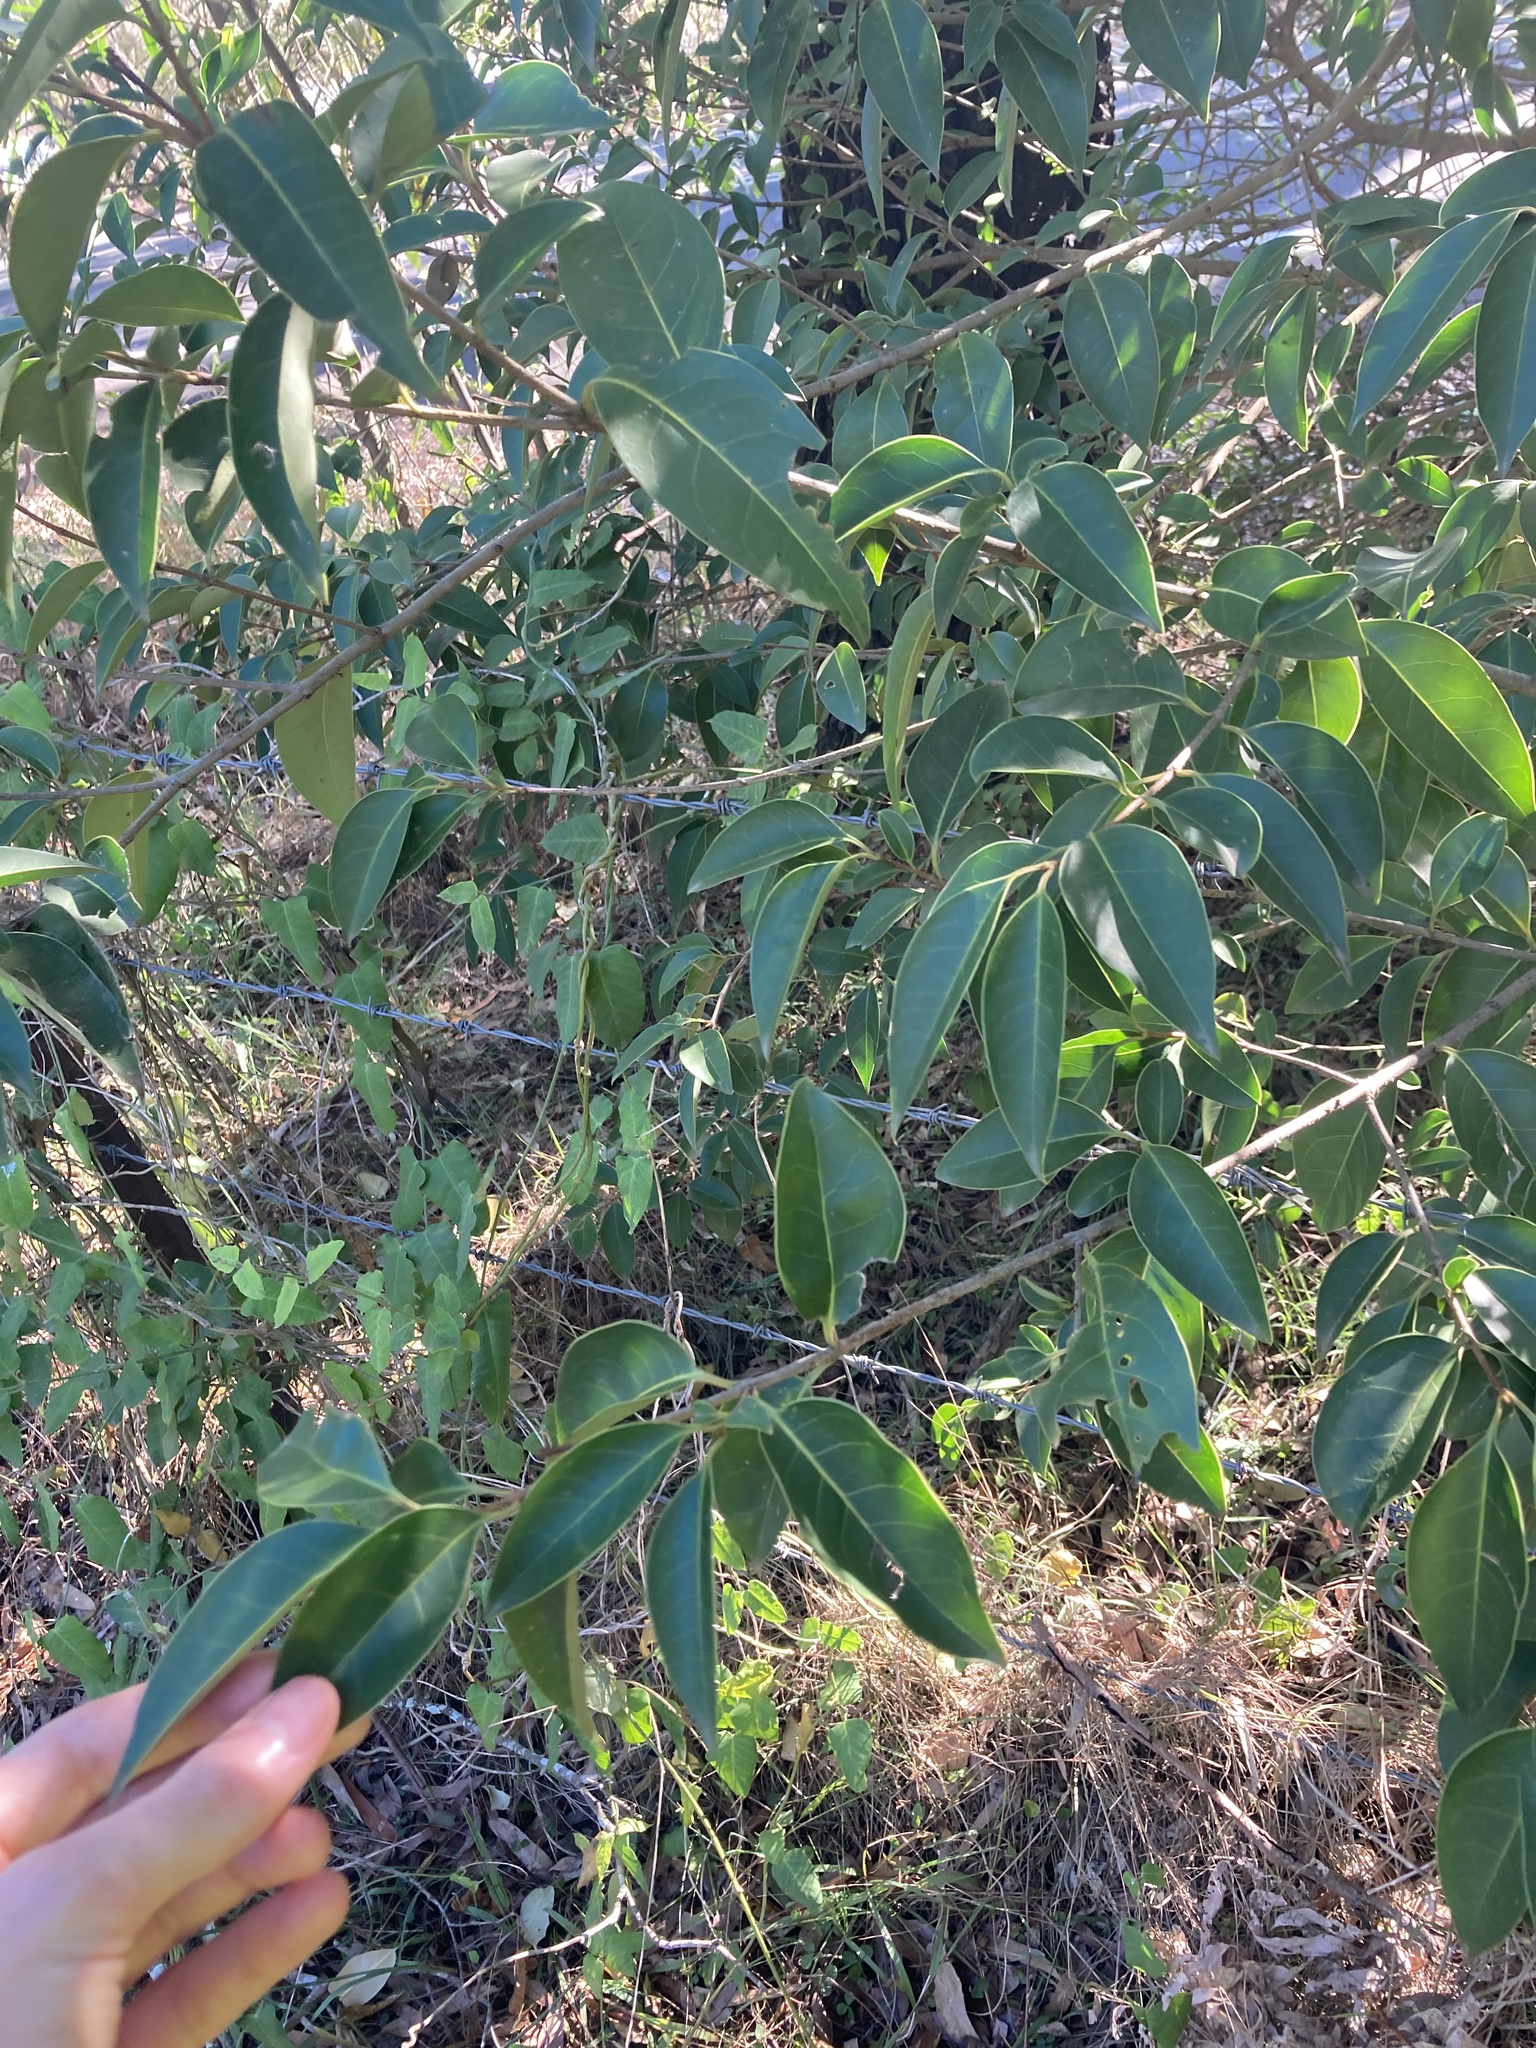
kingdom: Plantae
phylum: Tracheophyta
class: Magnoliopsida
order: Lamiales
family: Oleaceae
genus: Ligustrum
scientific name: Ligustrum lucidum
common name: Glossy privet
